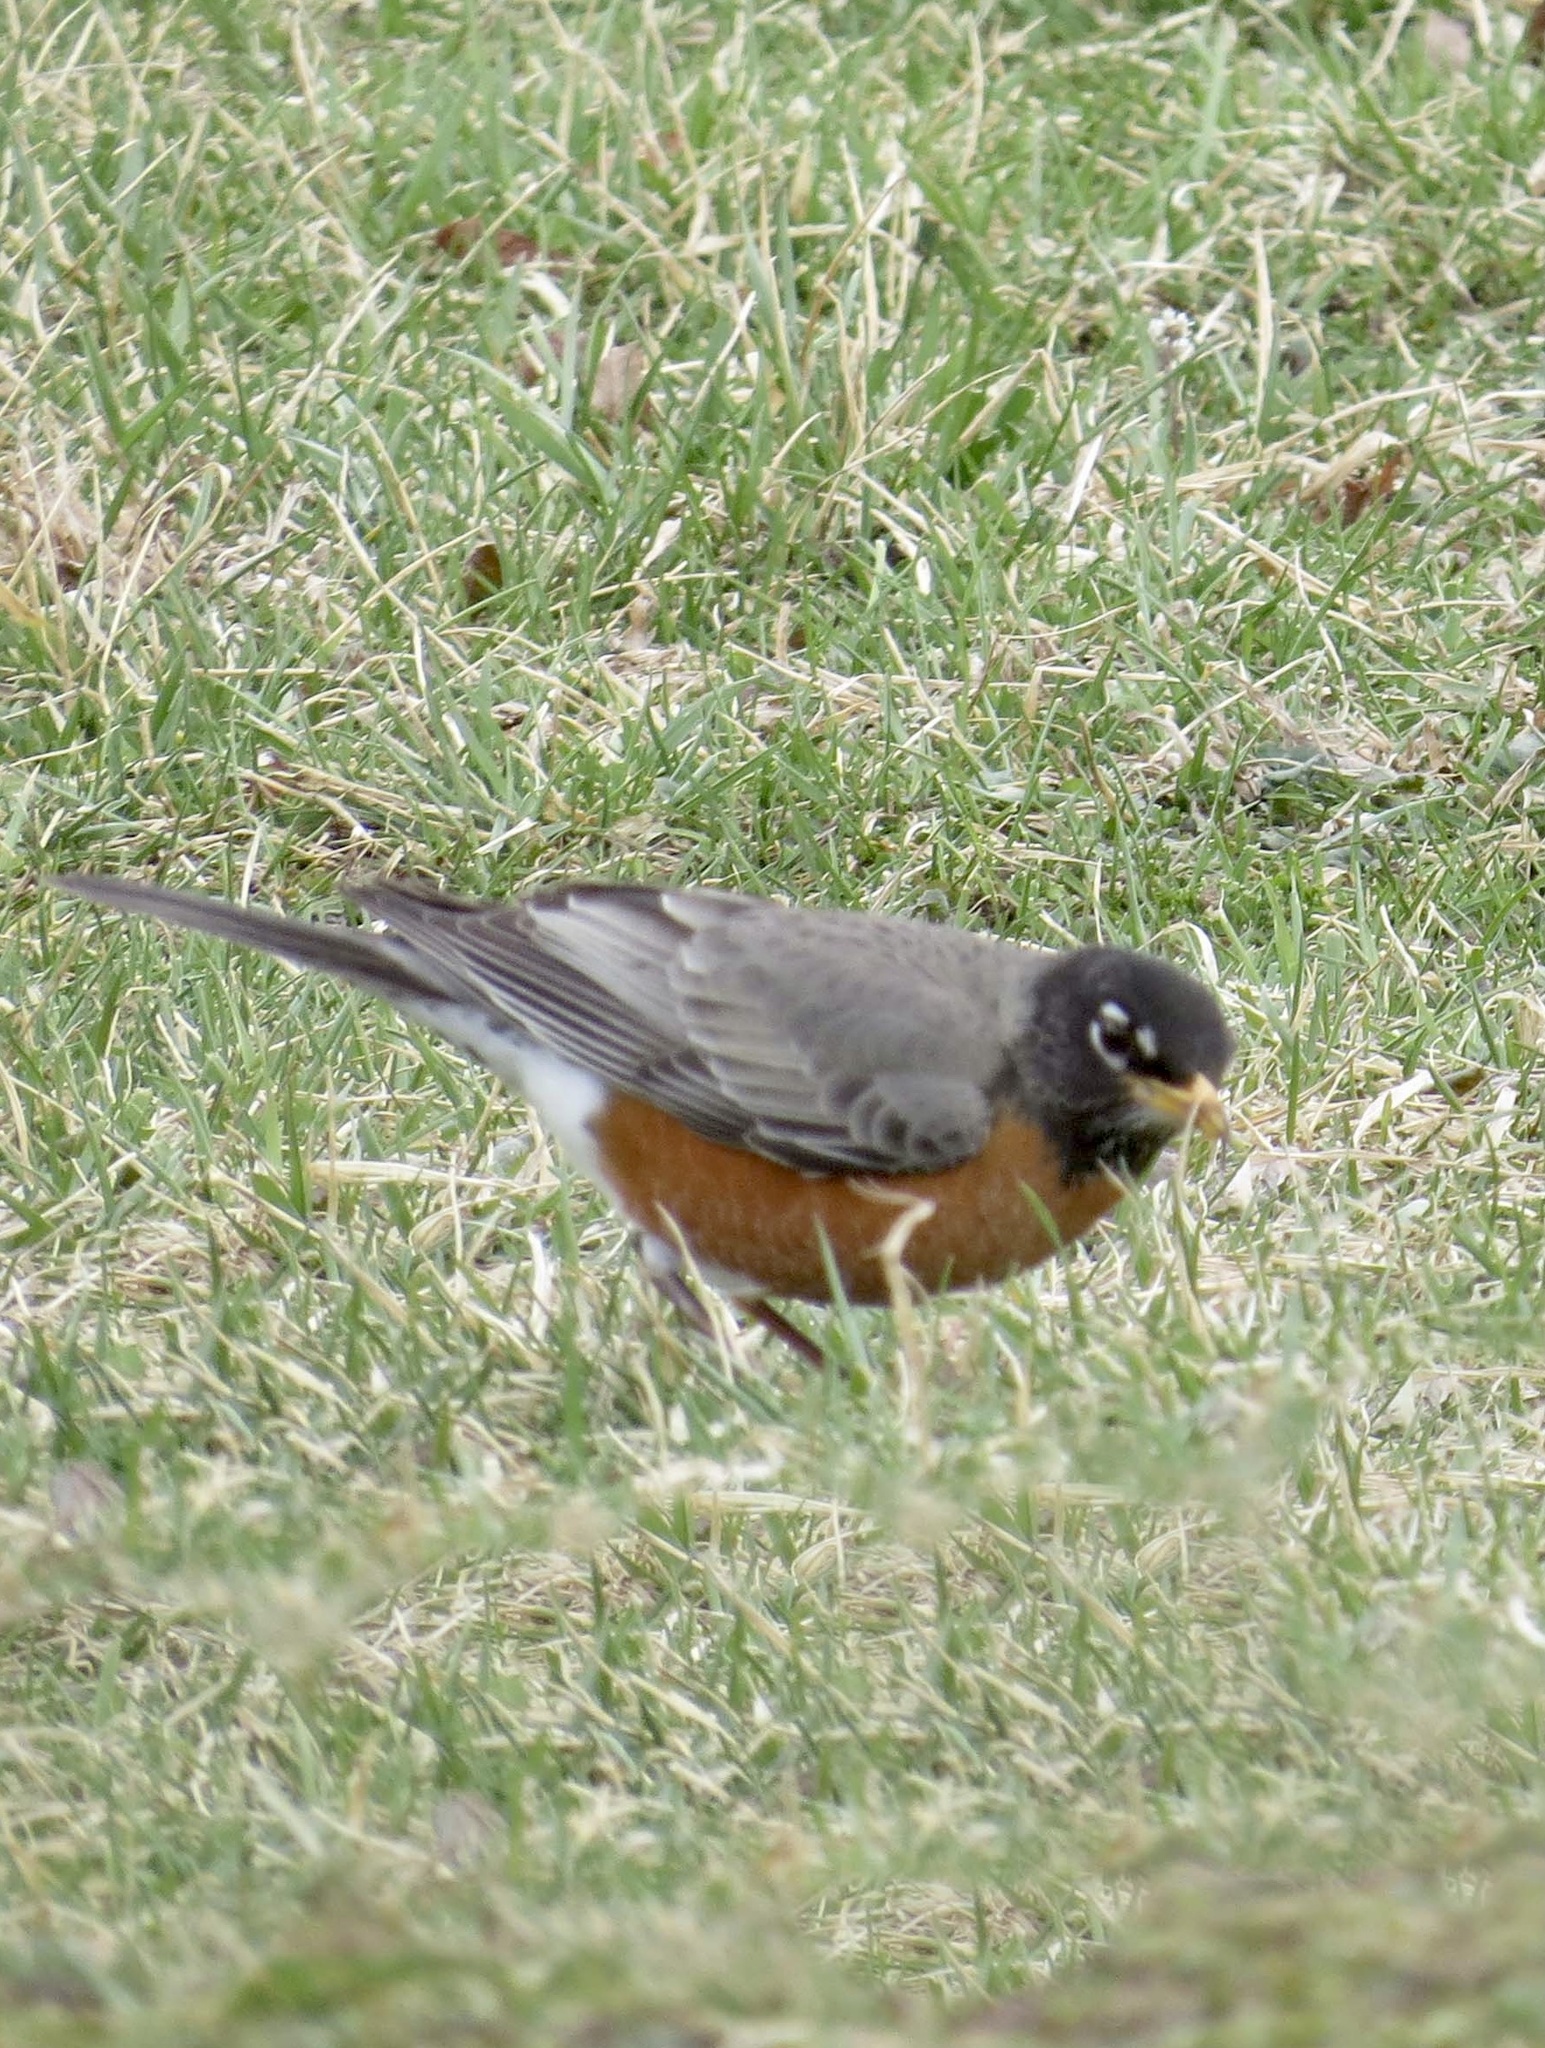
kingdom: Animalia
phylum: Chordata
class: Aves
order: Passeriformes
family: Turdidae
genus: Turdus
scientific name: Turdus migratorius
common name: American robin
